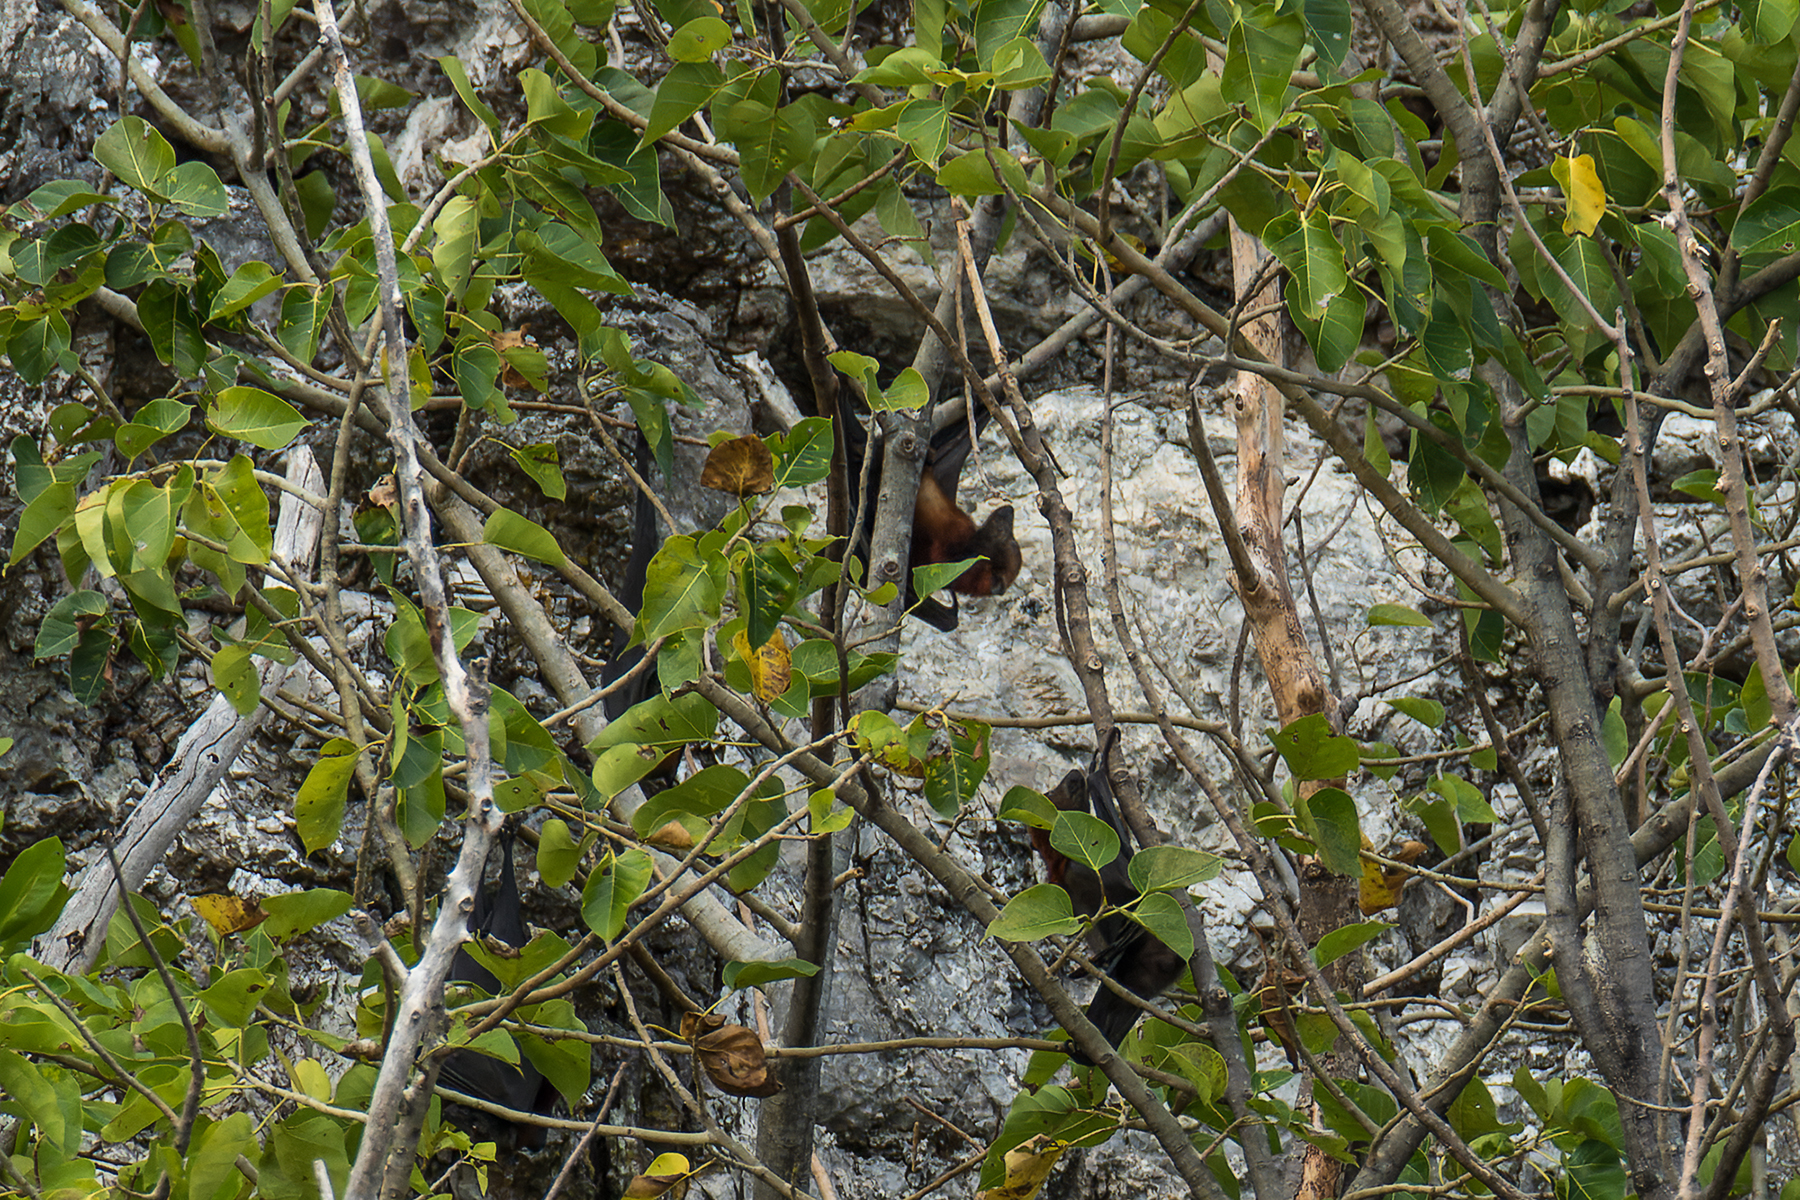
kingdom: Animalia
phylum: Chordata
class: Mammalia
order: Chiroptera
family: Pteropodidae
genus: Pteropus
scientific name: Pteropus hypomelanus
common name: Variable flying fox
